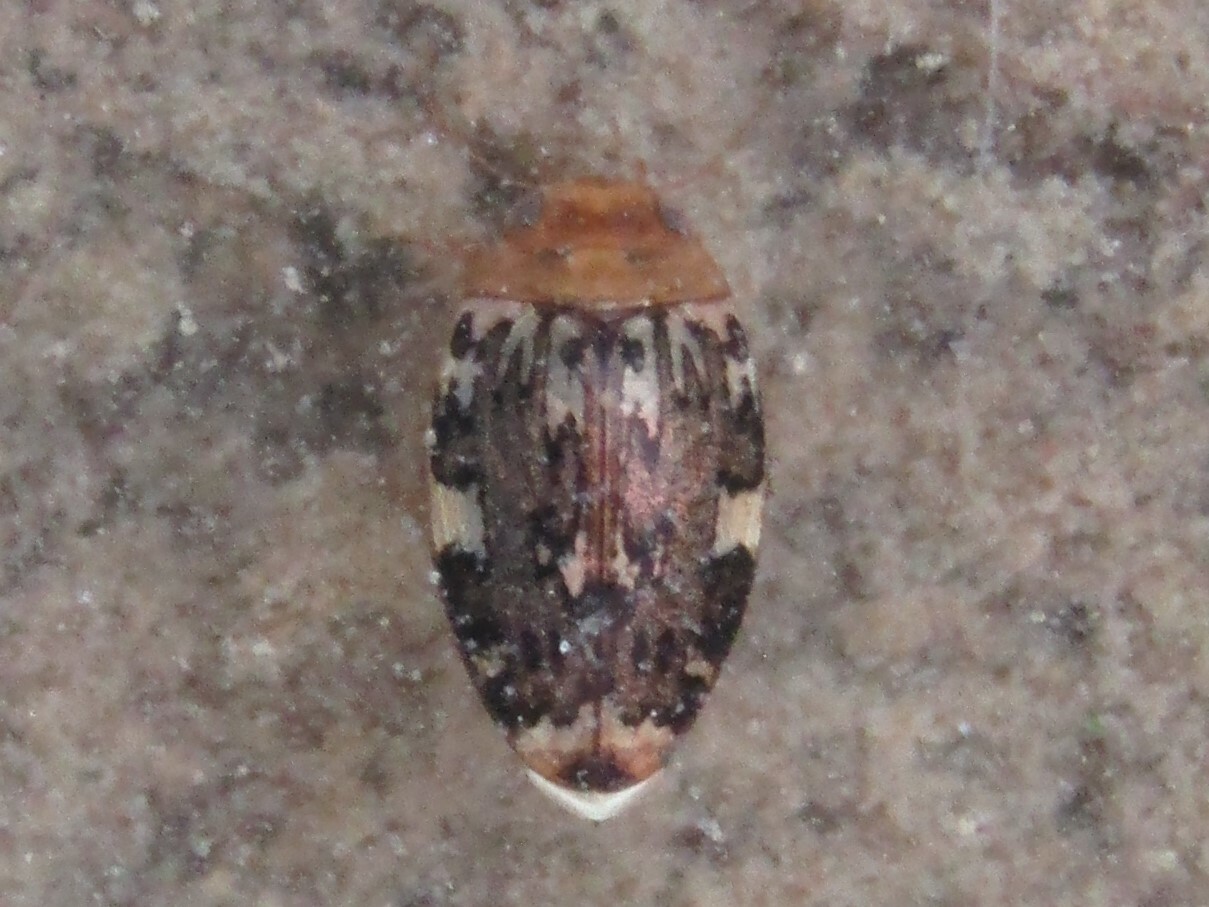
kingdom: Animalia
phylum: Arthropoda
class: Insecta
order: Coleoptera
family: Dytiscidae
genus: Laccophilus
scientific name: Laccophilus maculosus
